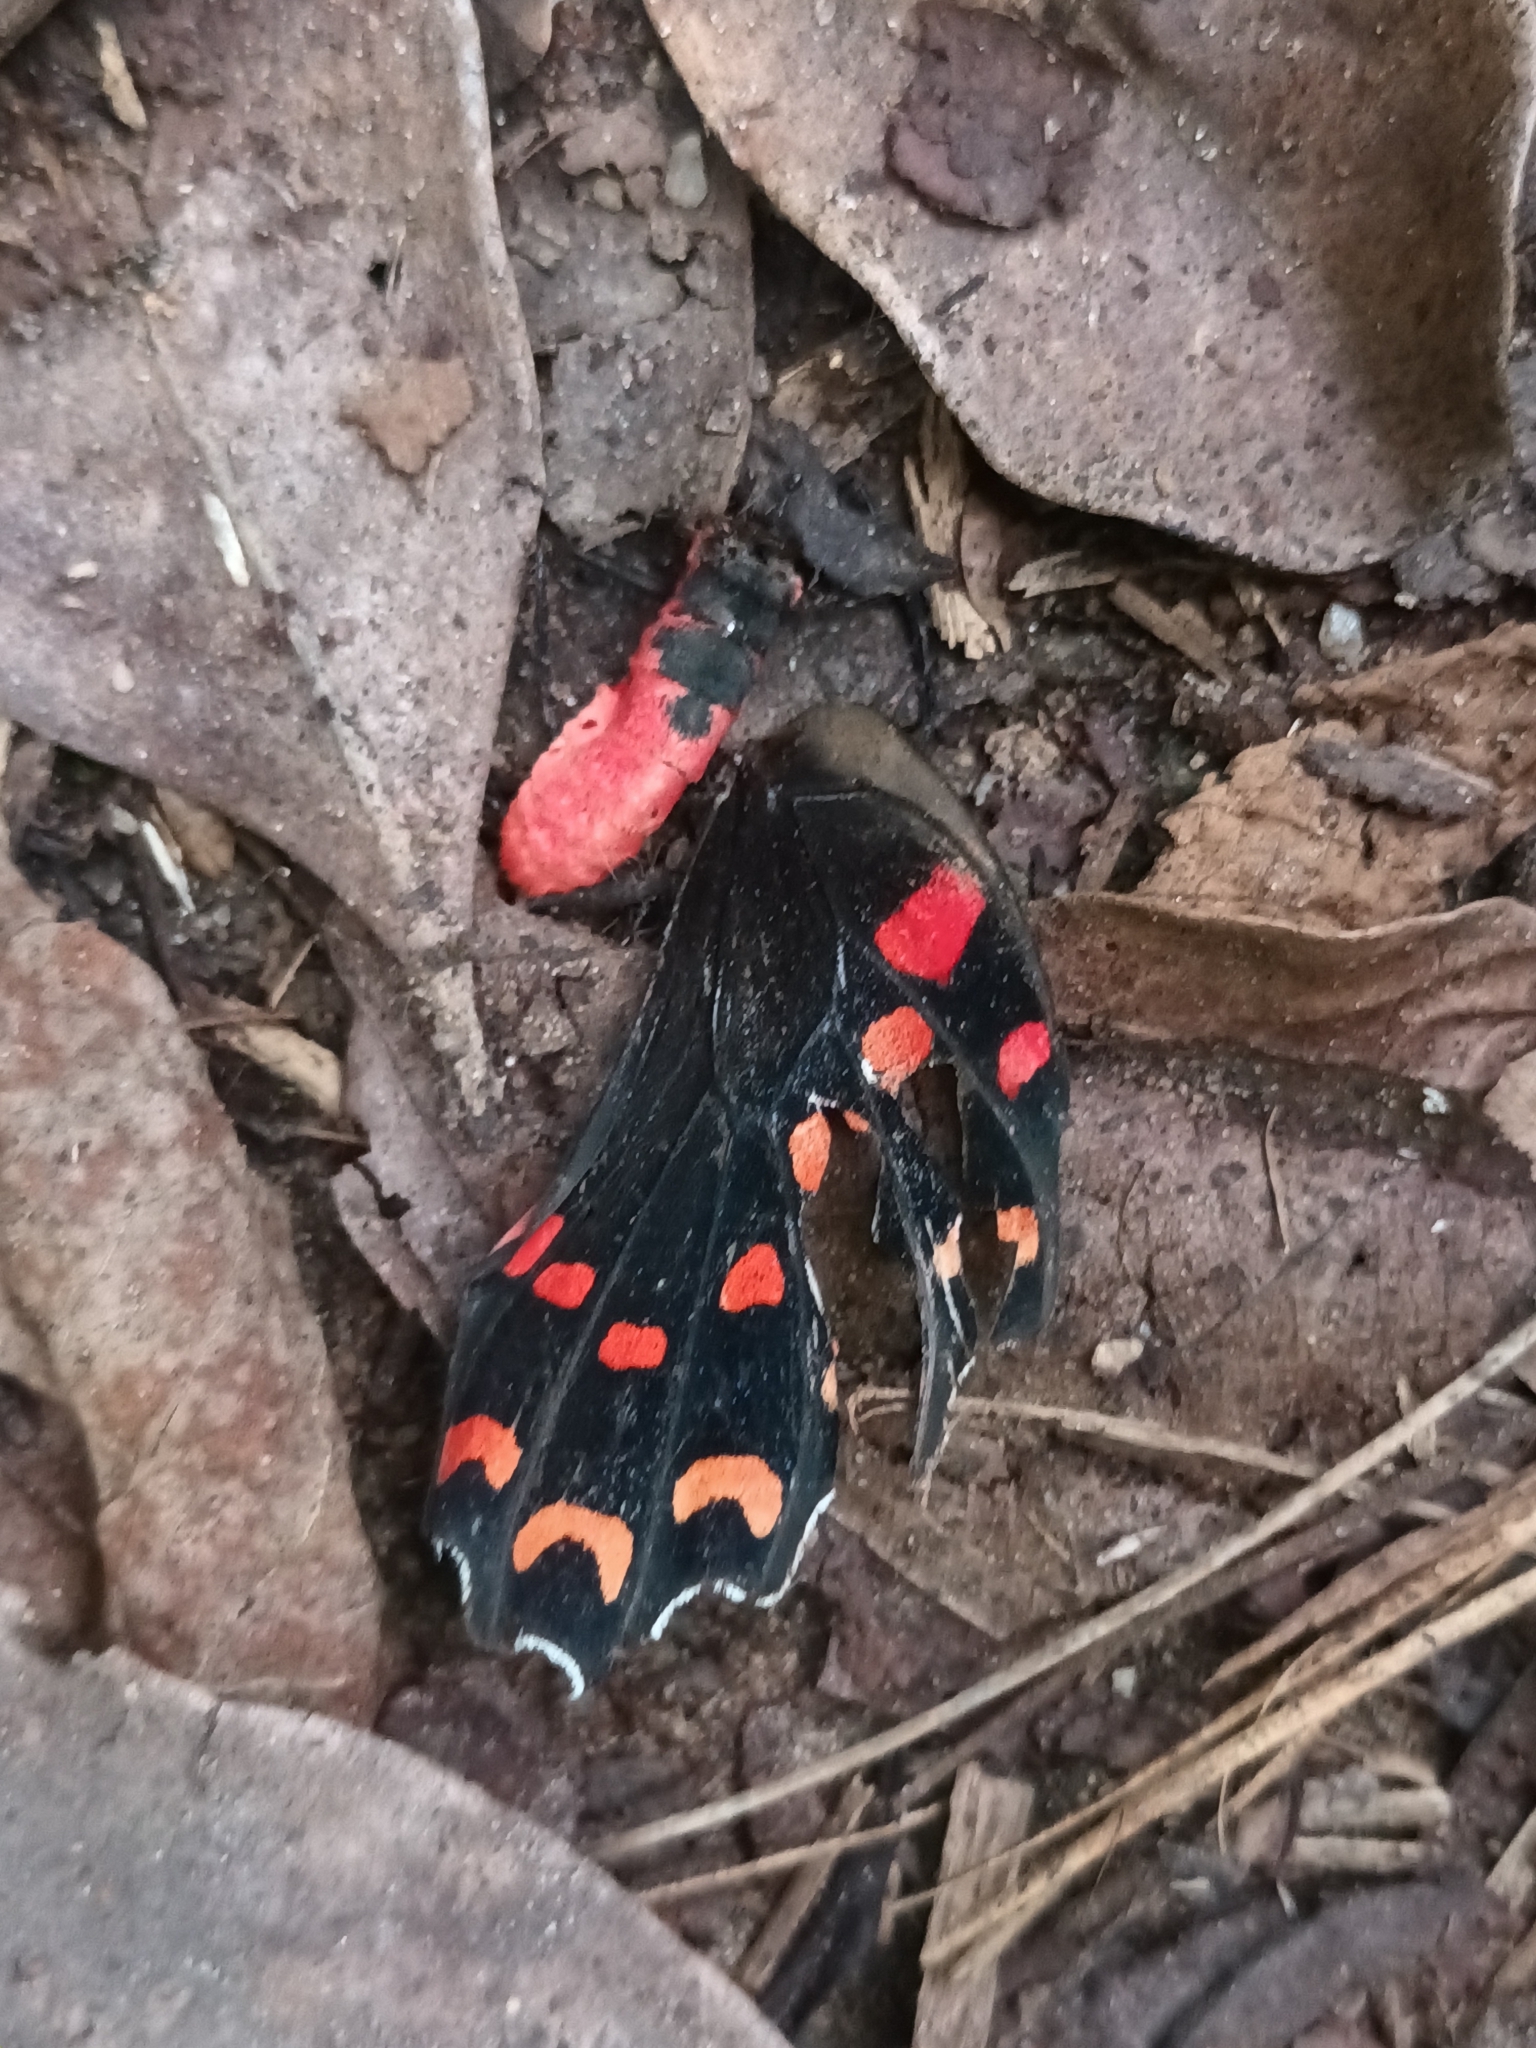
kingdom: Animalia
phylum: Arthropoda
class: Insecta
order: Lepidoptera
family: Papilionidae
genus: Pachliopta
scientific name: Pachliopta hector
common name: Crimson rose
